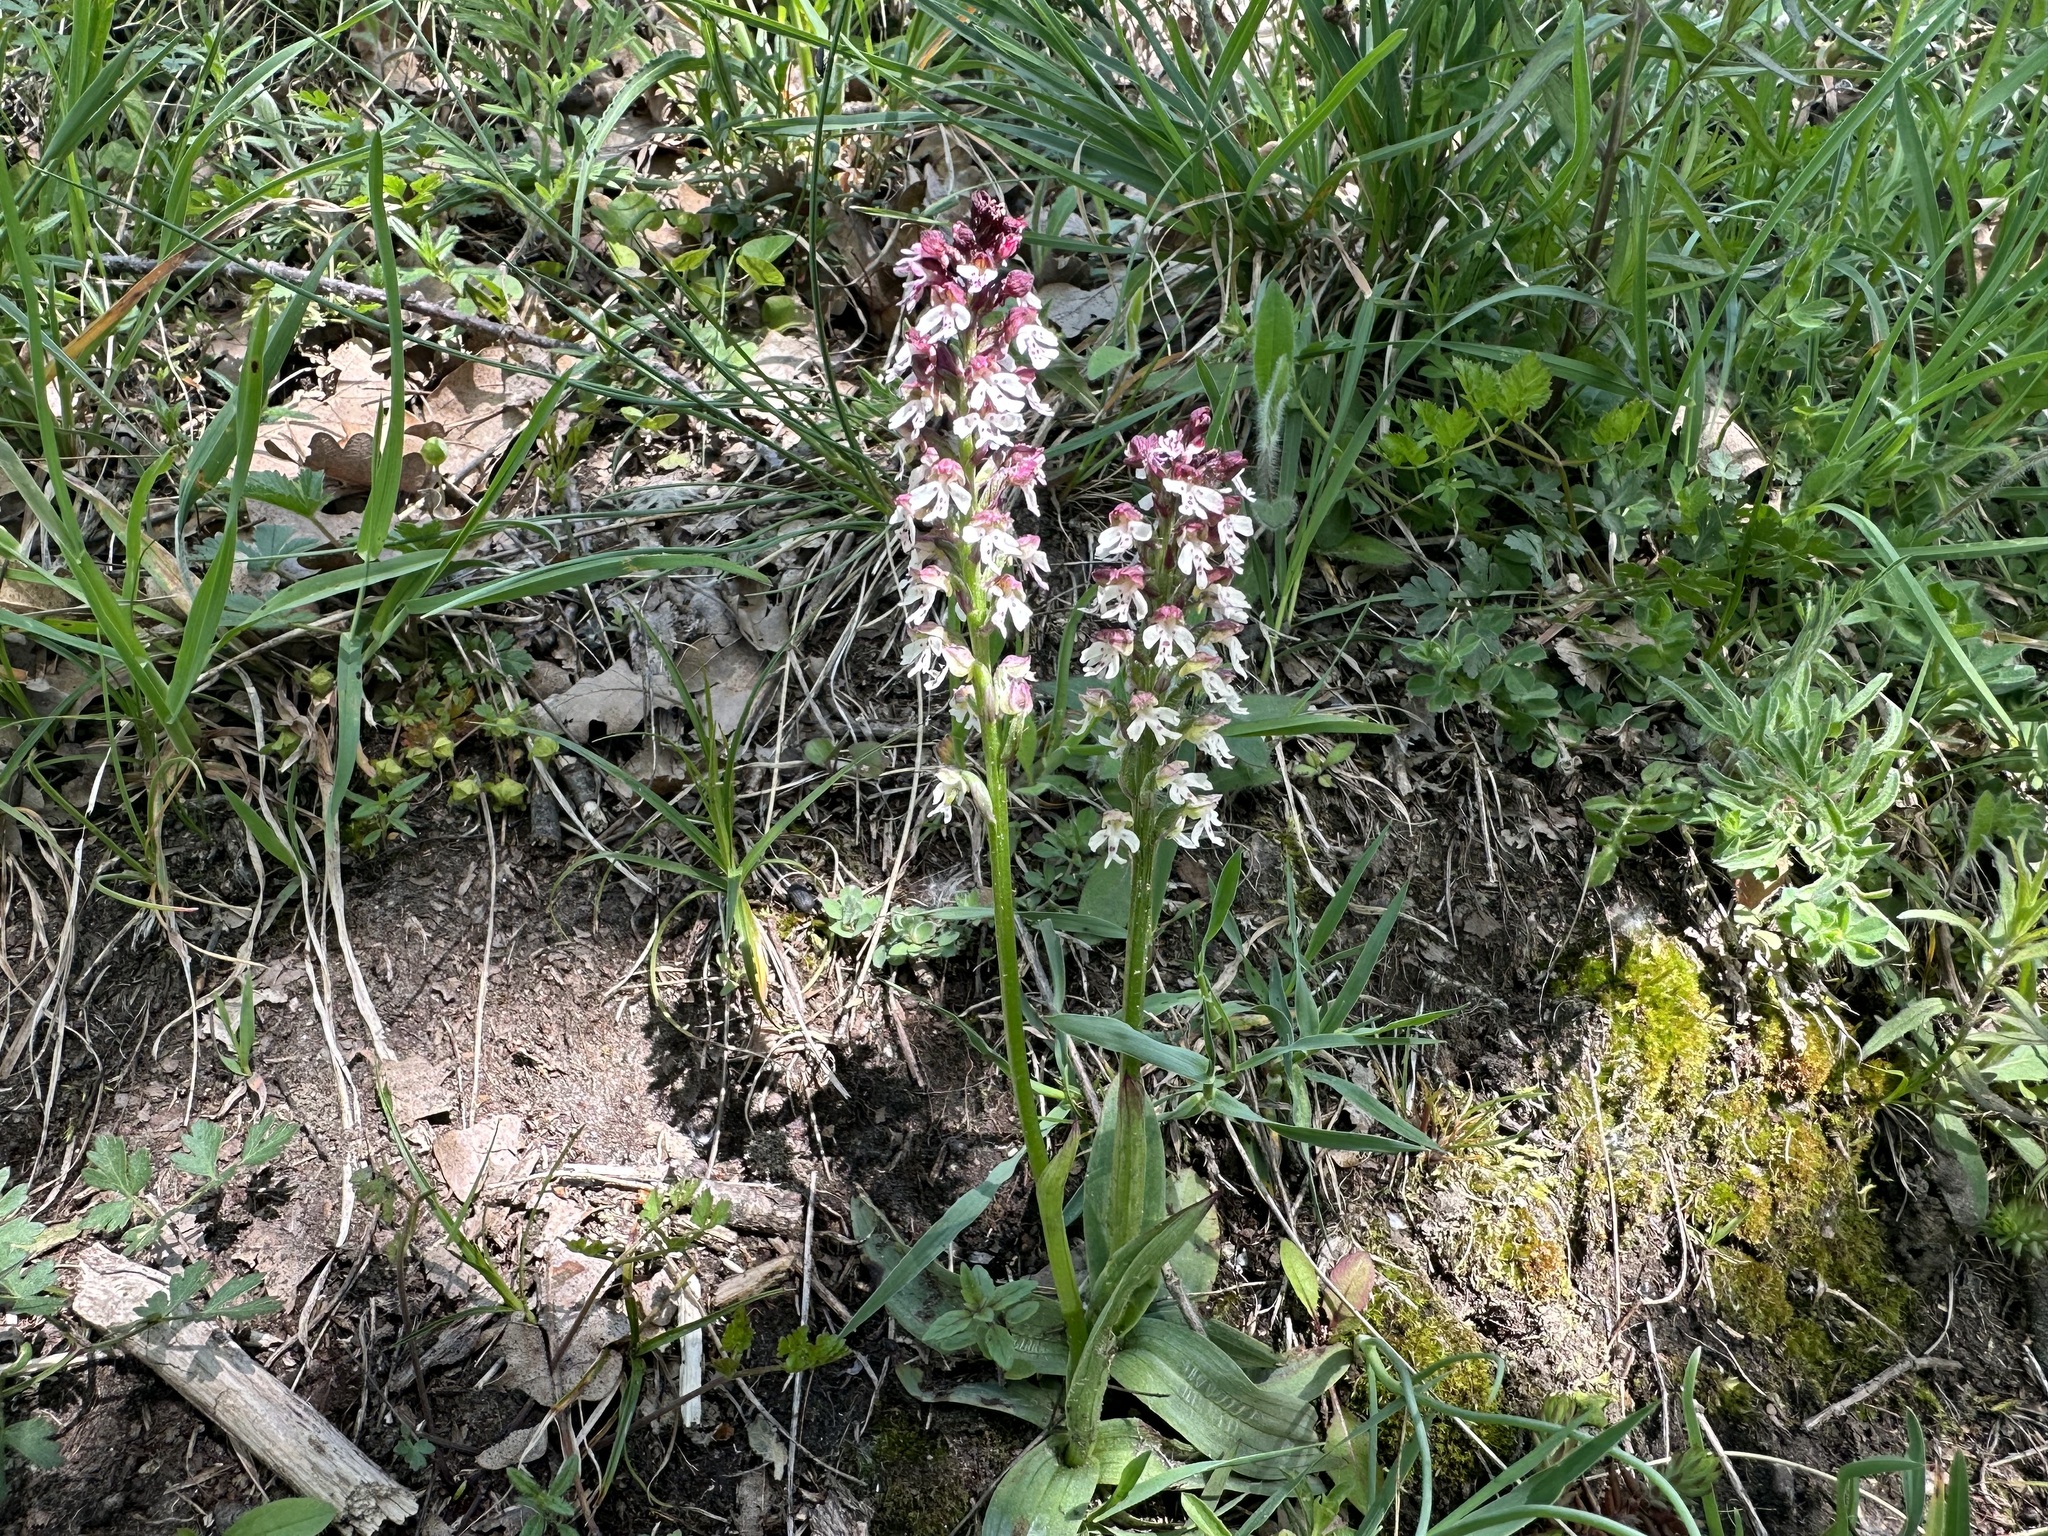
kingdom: Plantae
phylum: Tracheophyta
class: Liliopsida
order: Asparagales
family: Orchidaceae
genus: Neotinea
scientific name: Neotinea ustulata
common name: Burnt orchid
